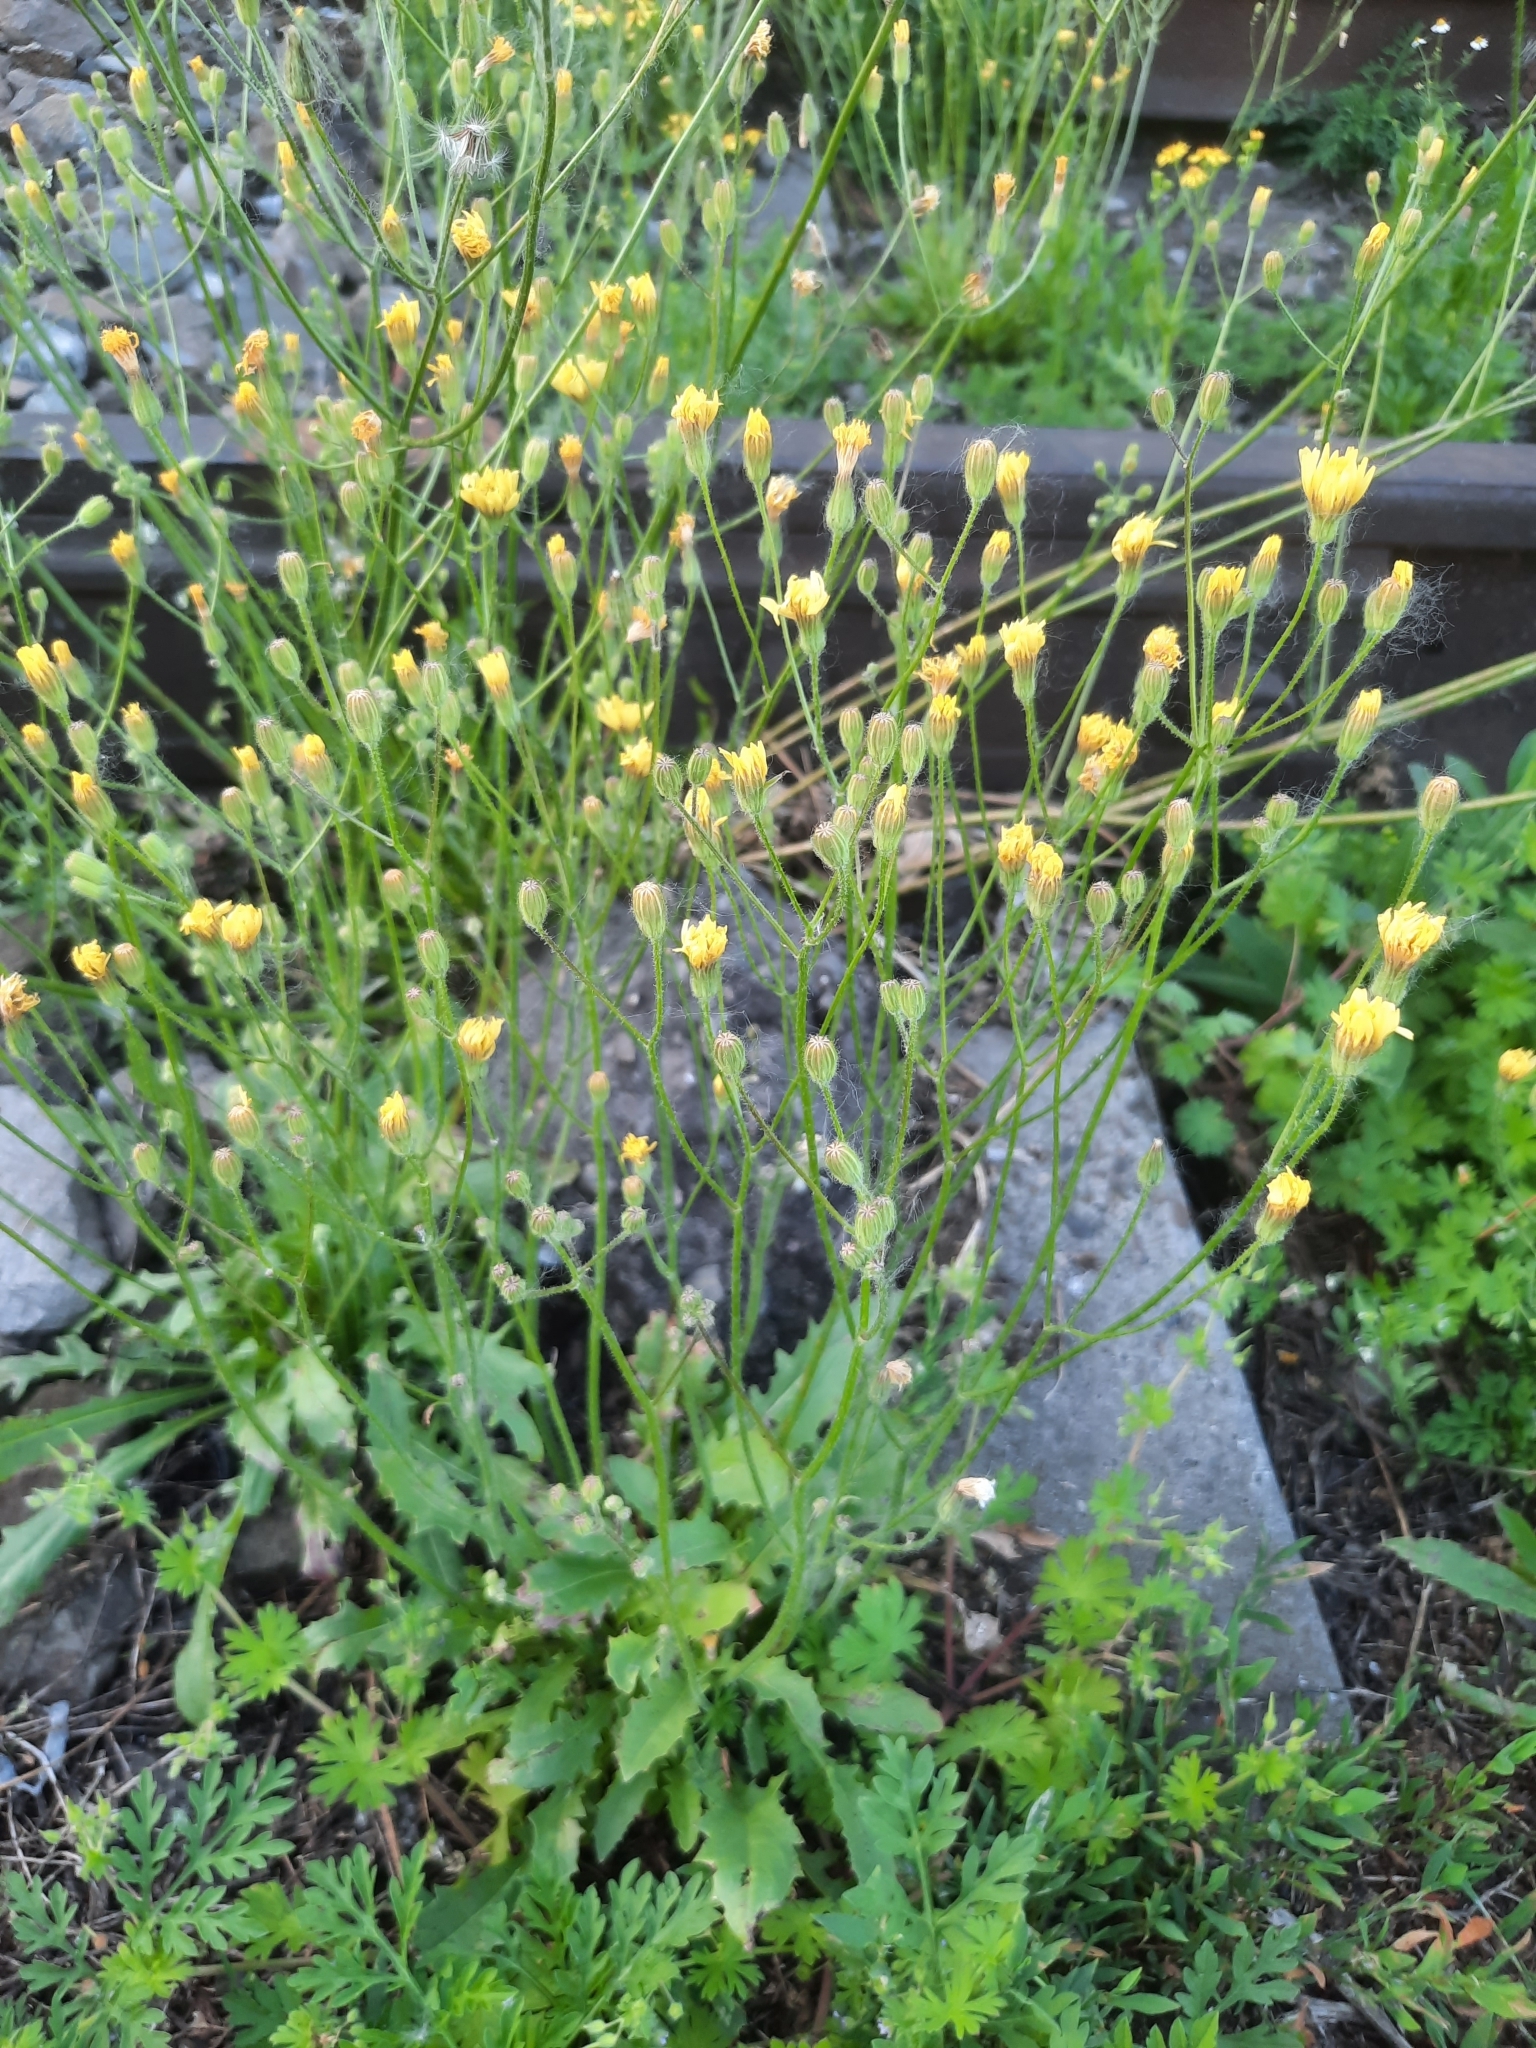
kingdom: Plantae
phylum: Tracheophyta
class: Magnoliopsida
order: Asterales
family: Asteraceae
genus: Crepis
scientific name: Crepis sancta
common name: Hawk's-beard
